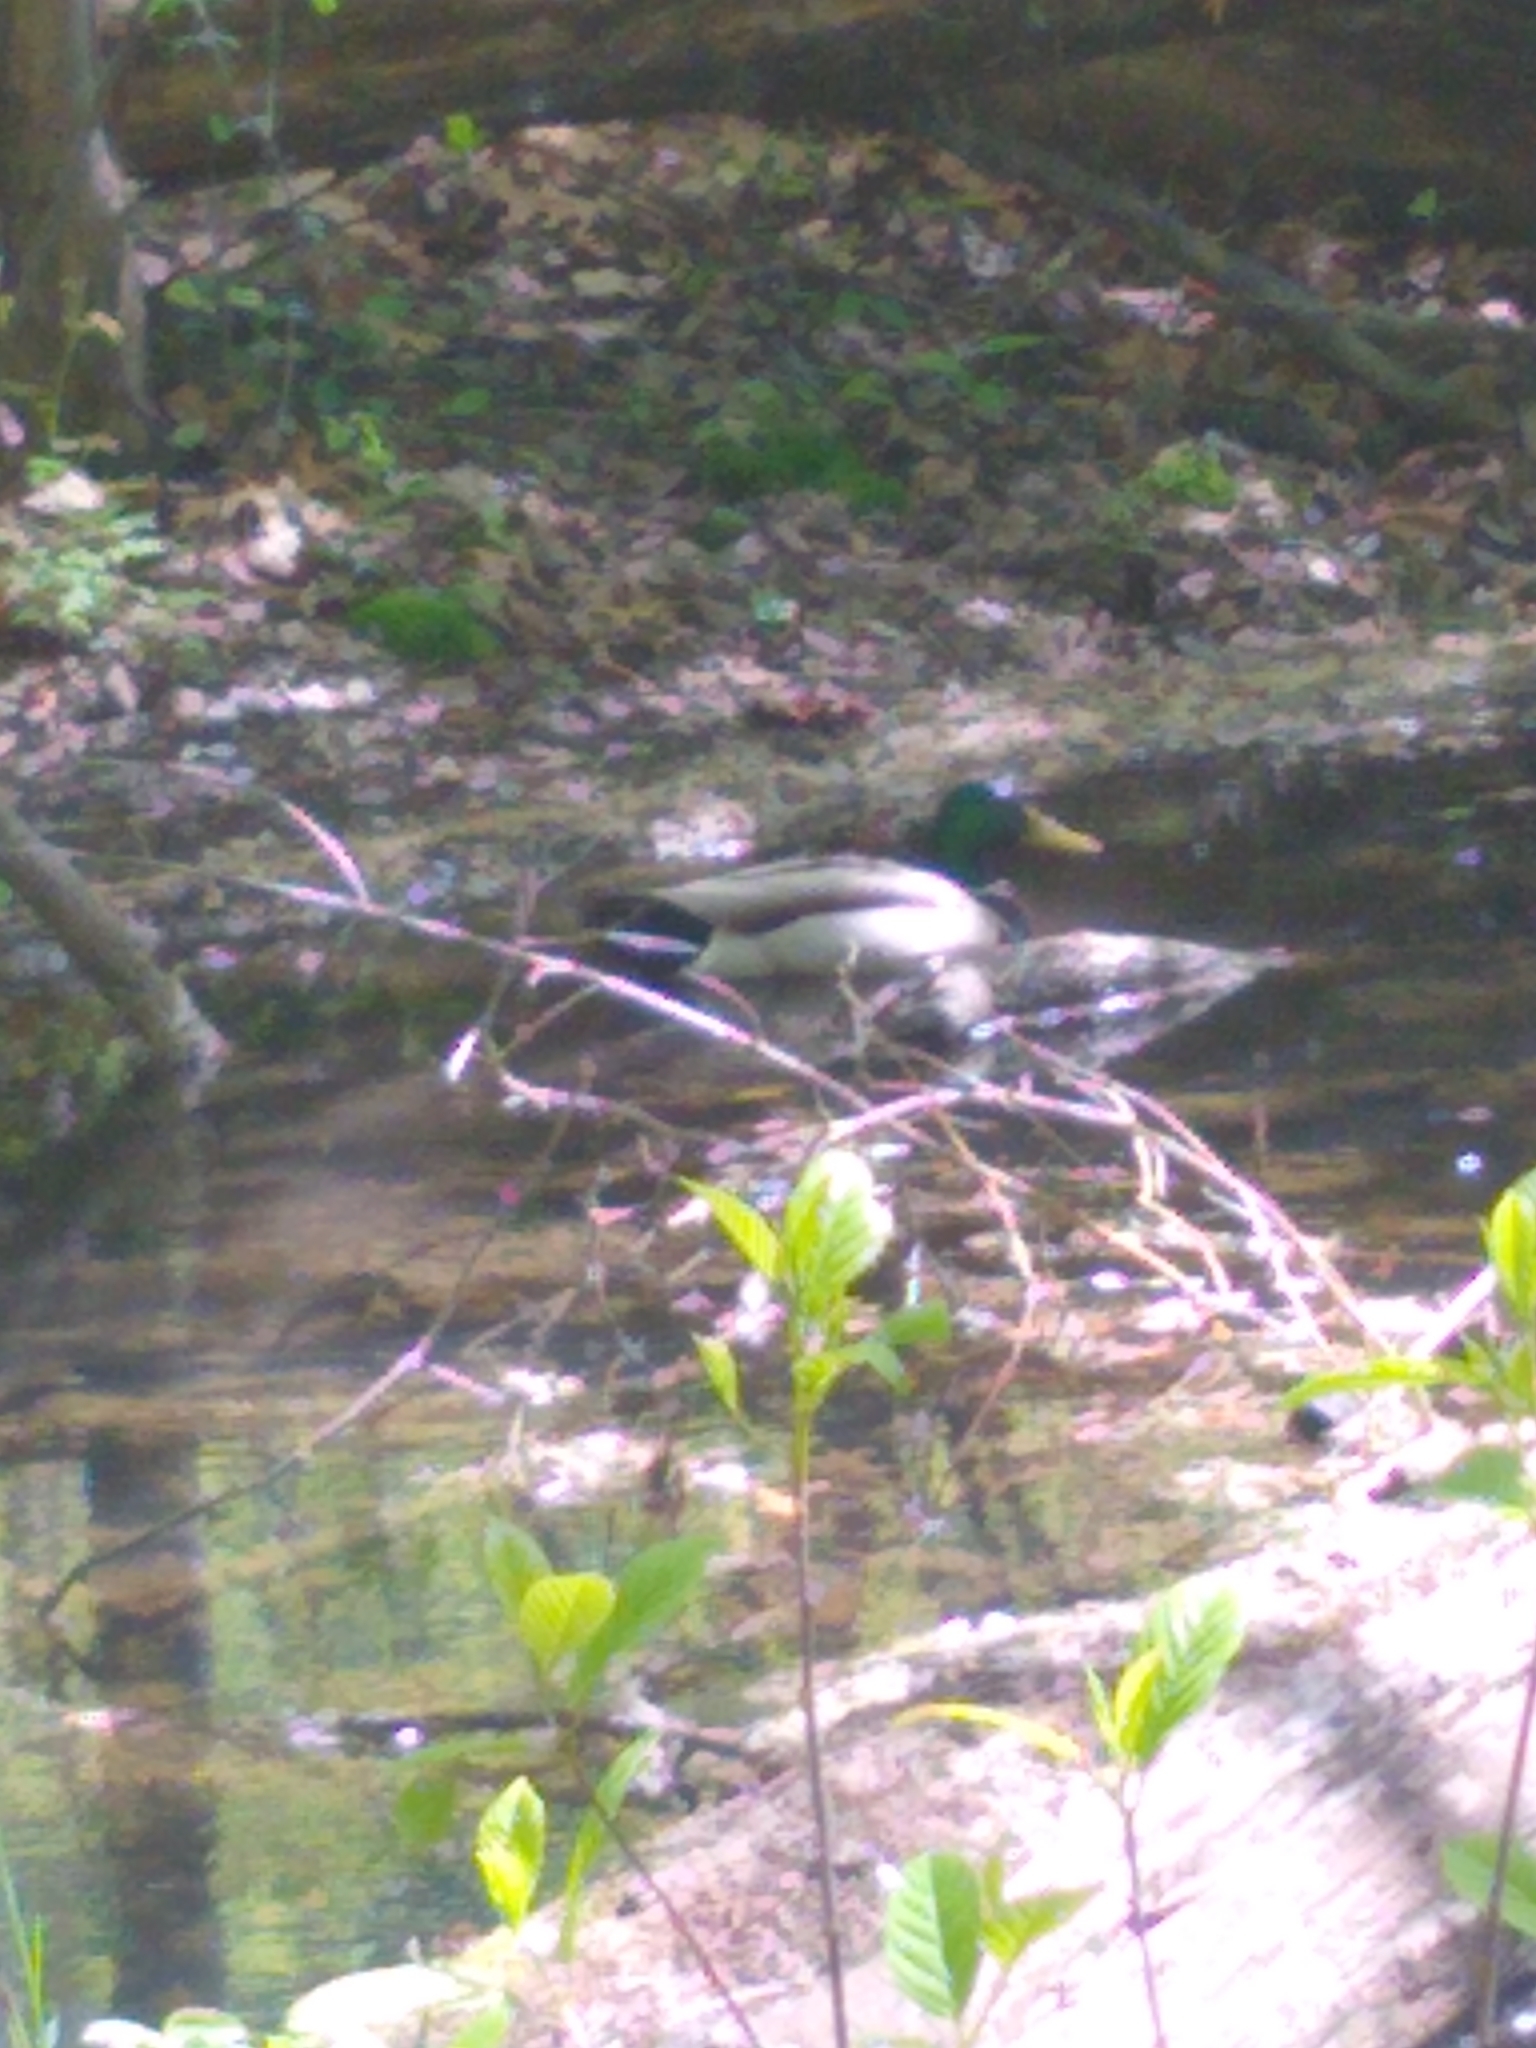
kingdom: Animalia
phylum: Chordata
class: Aves
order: Anseriformes
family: Anatidae
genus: Anas
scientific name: Anas platyrhynchos
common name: Mallard
